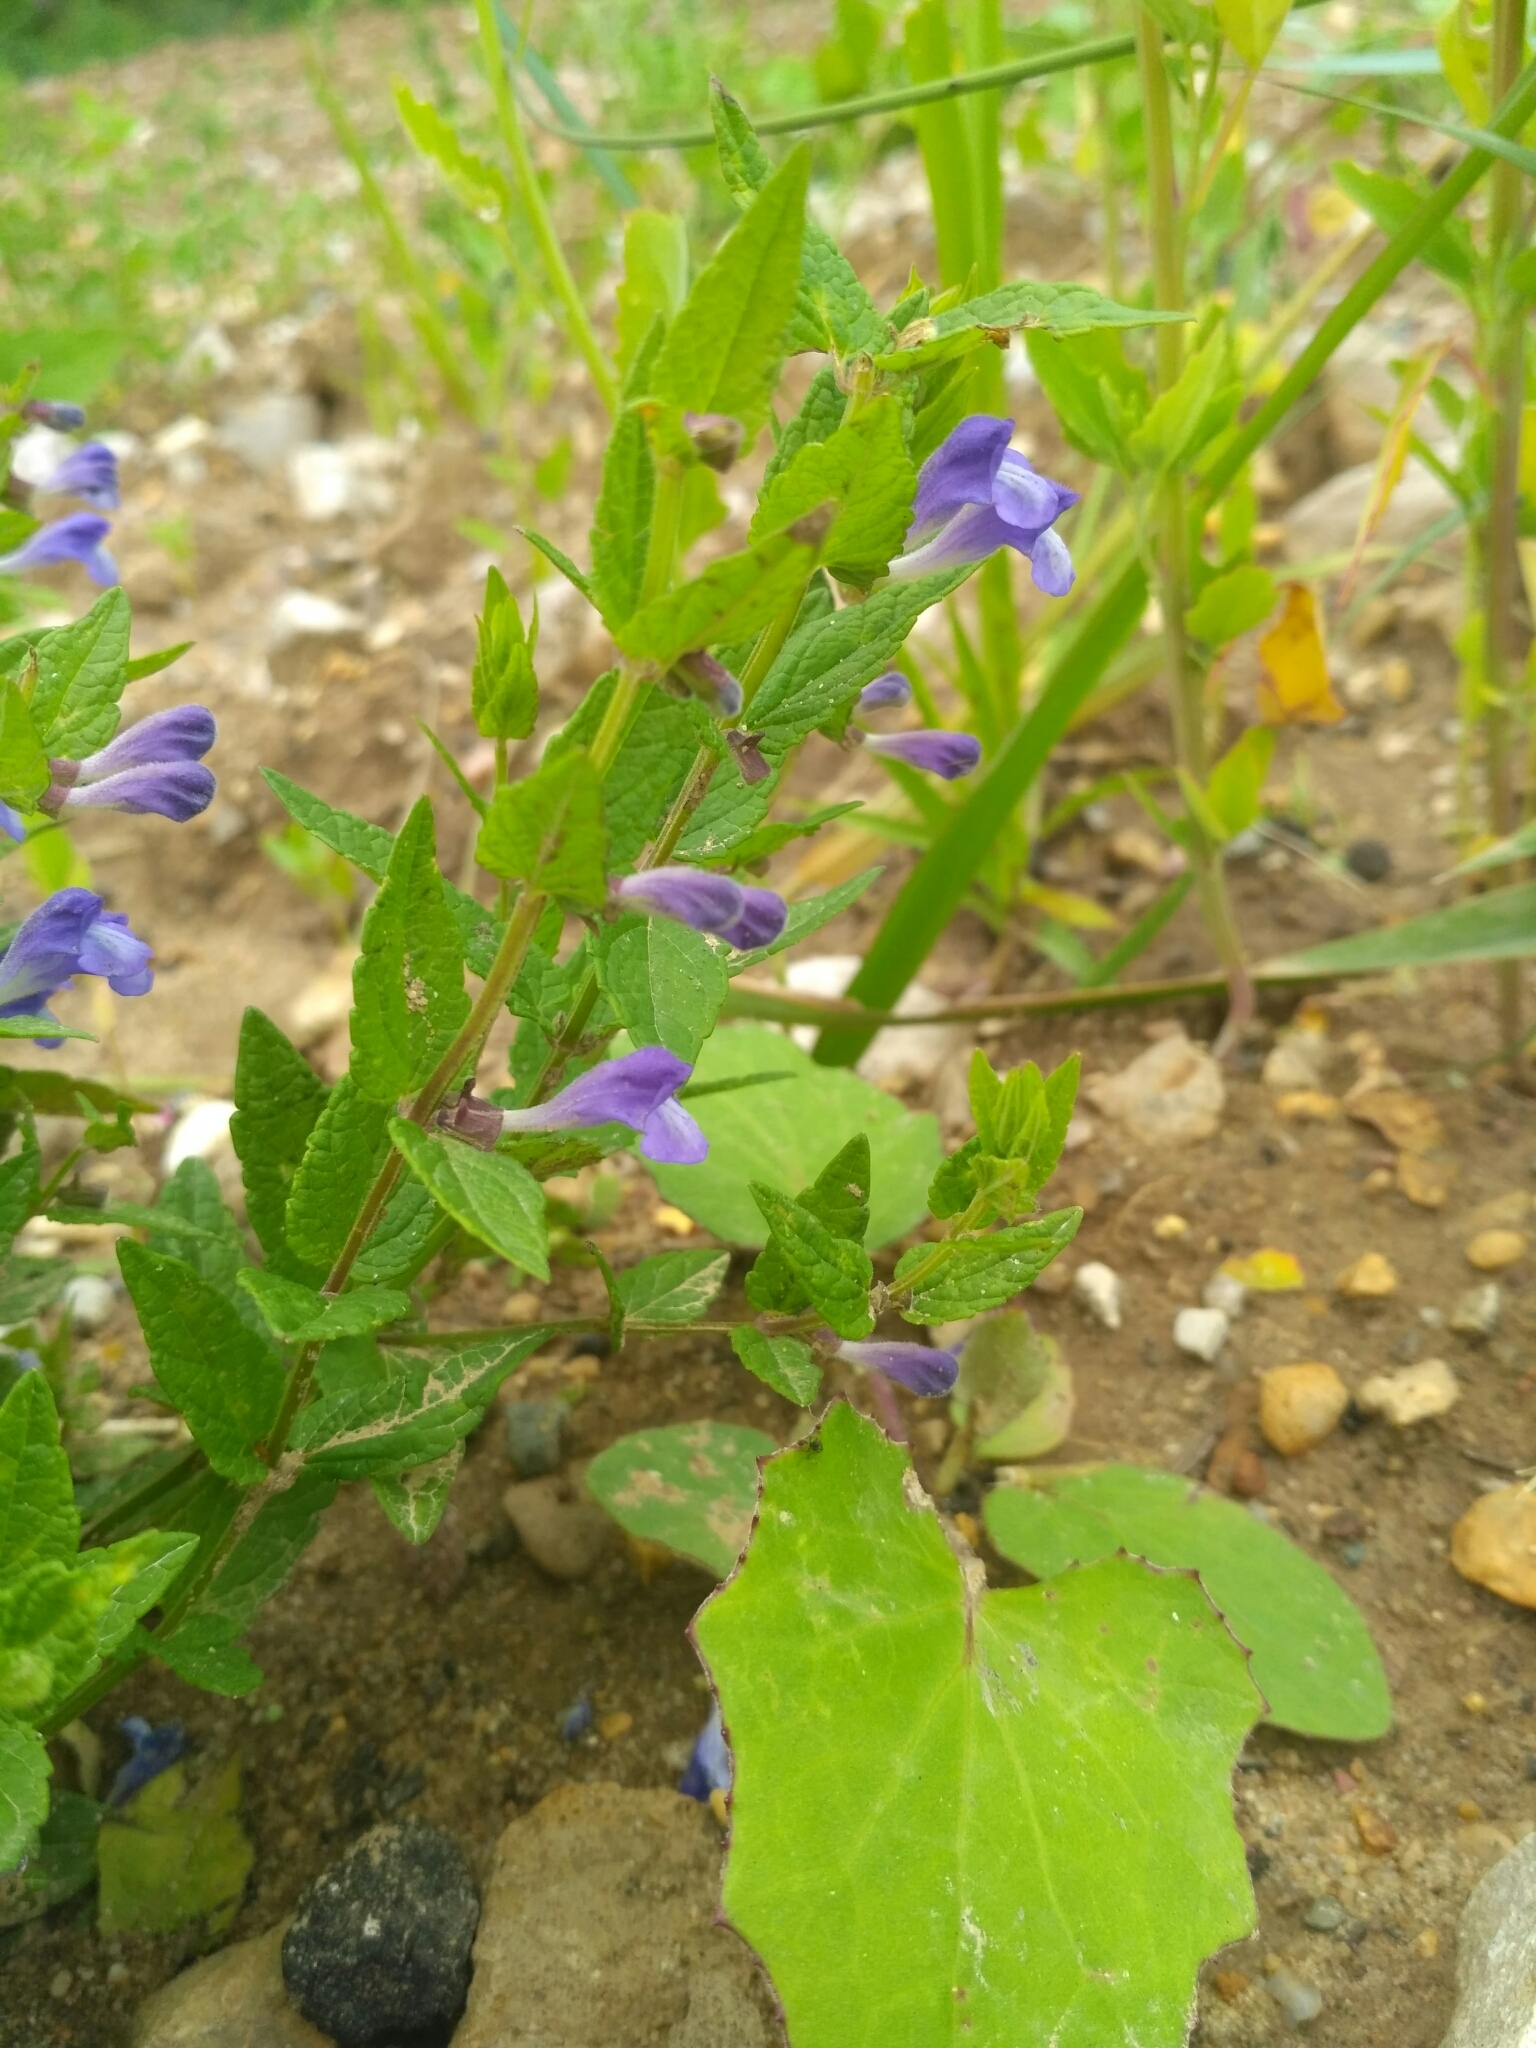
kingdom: Plantae
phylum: Tracheophyta
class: Magnoliopsida
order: Lamiales
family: Lamiaceae
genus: Scutellaria
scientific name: Scutellaria galericulata
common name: Skullcap
